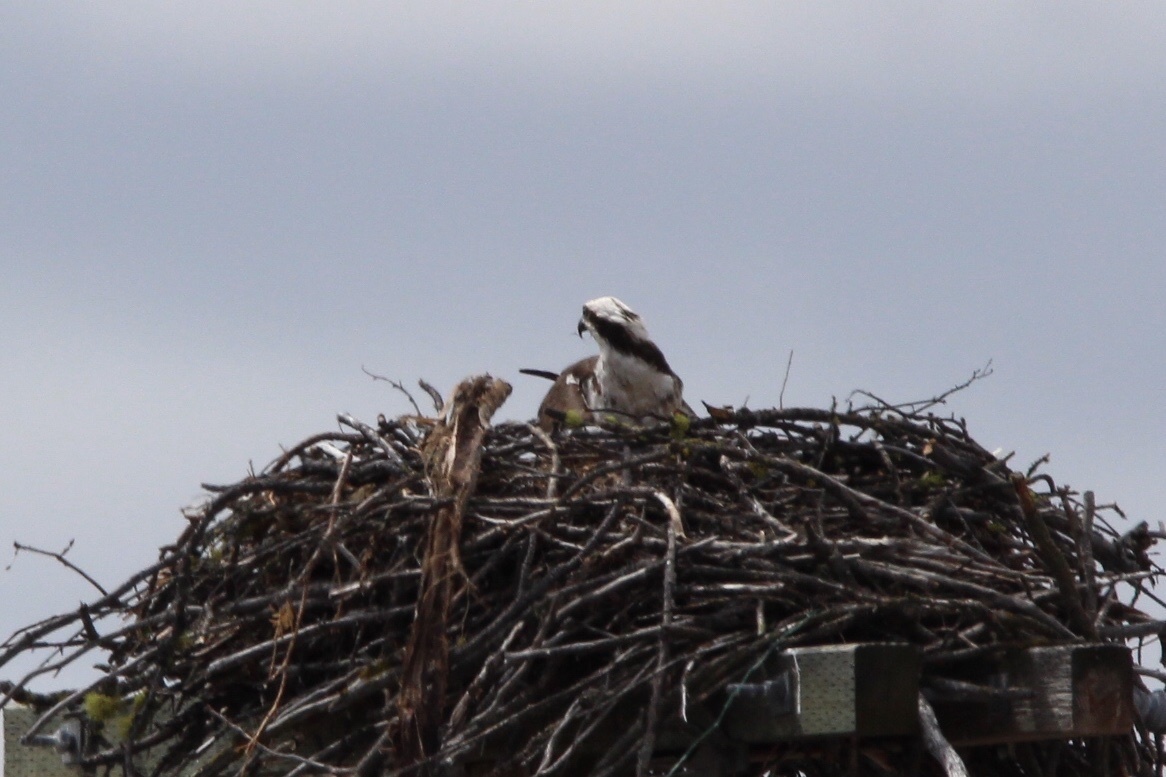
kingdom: Animalia
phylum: Chordata
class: Aves
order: Accipitriformes
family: Pandionidae
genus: Pandion
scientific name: Pandion haliaetus
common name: Osprey
